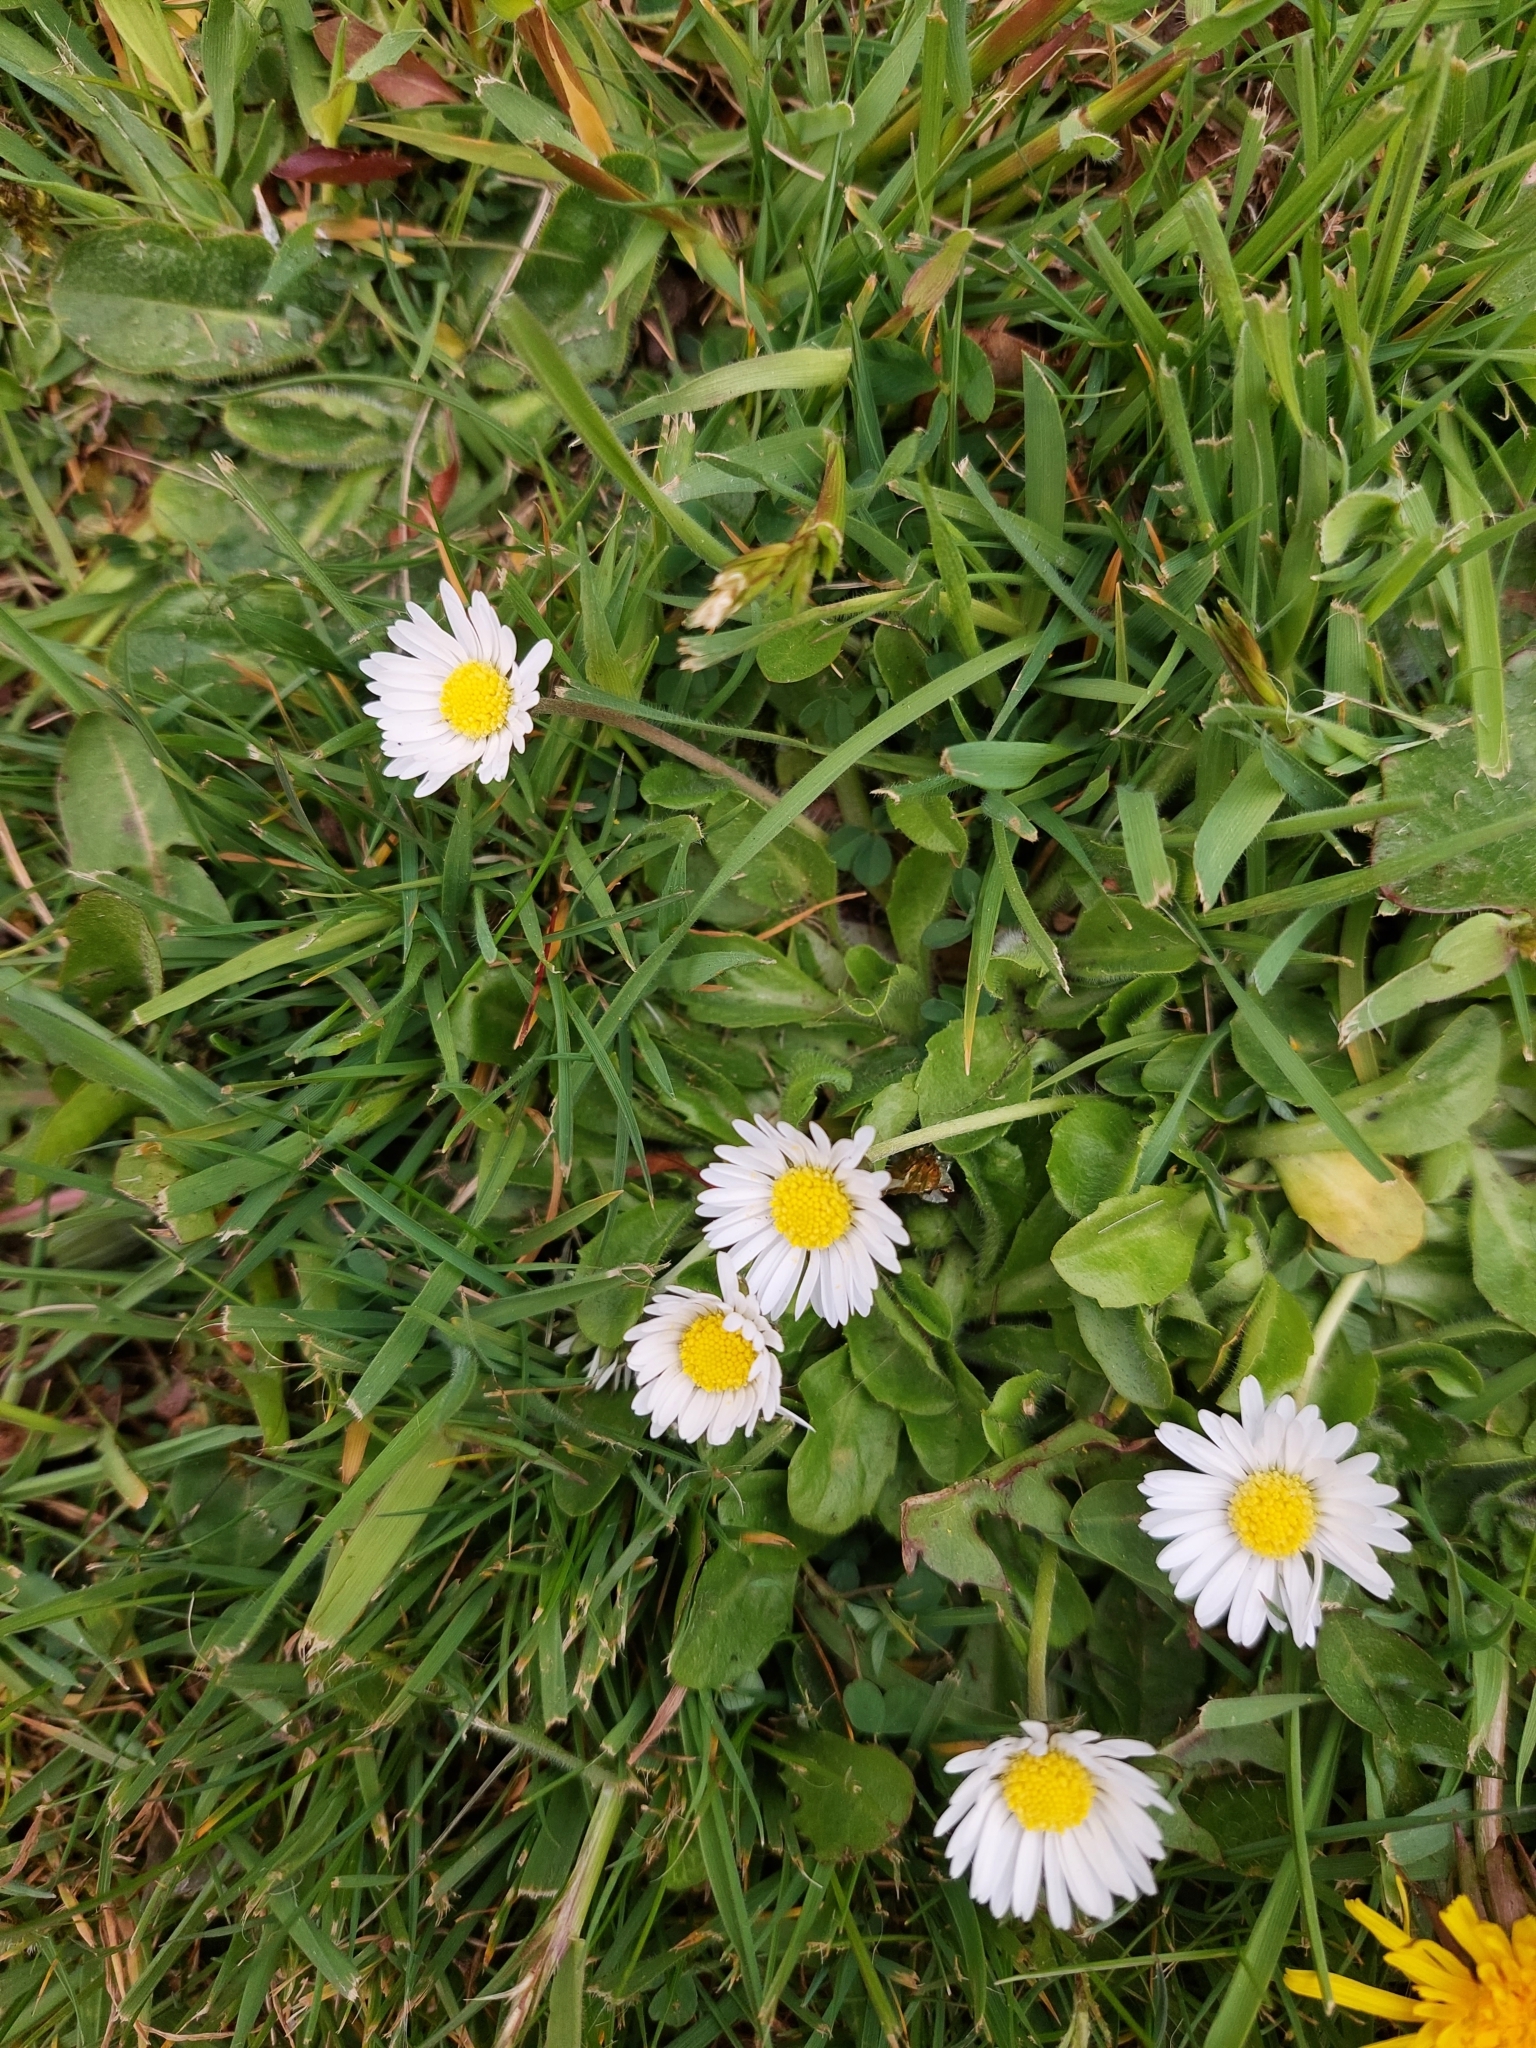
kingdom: Plantae
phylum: Tracheophyta
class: Magnoliopsida
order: Asterales
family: Asteraceae
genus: Bellis
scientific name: Bellis perennis
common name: Lawndaisy
